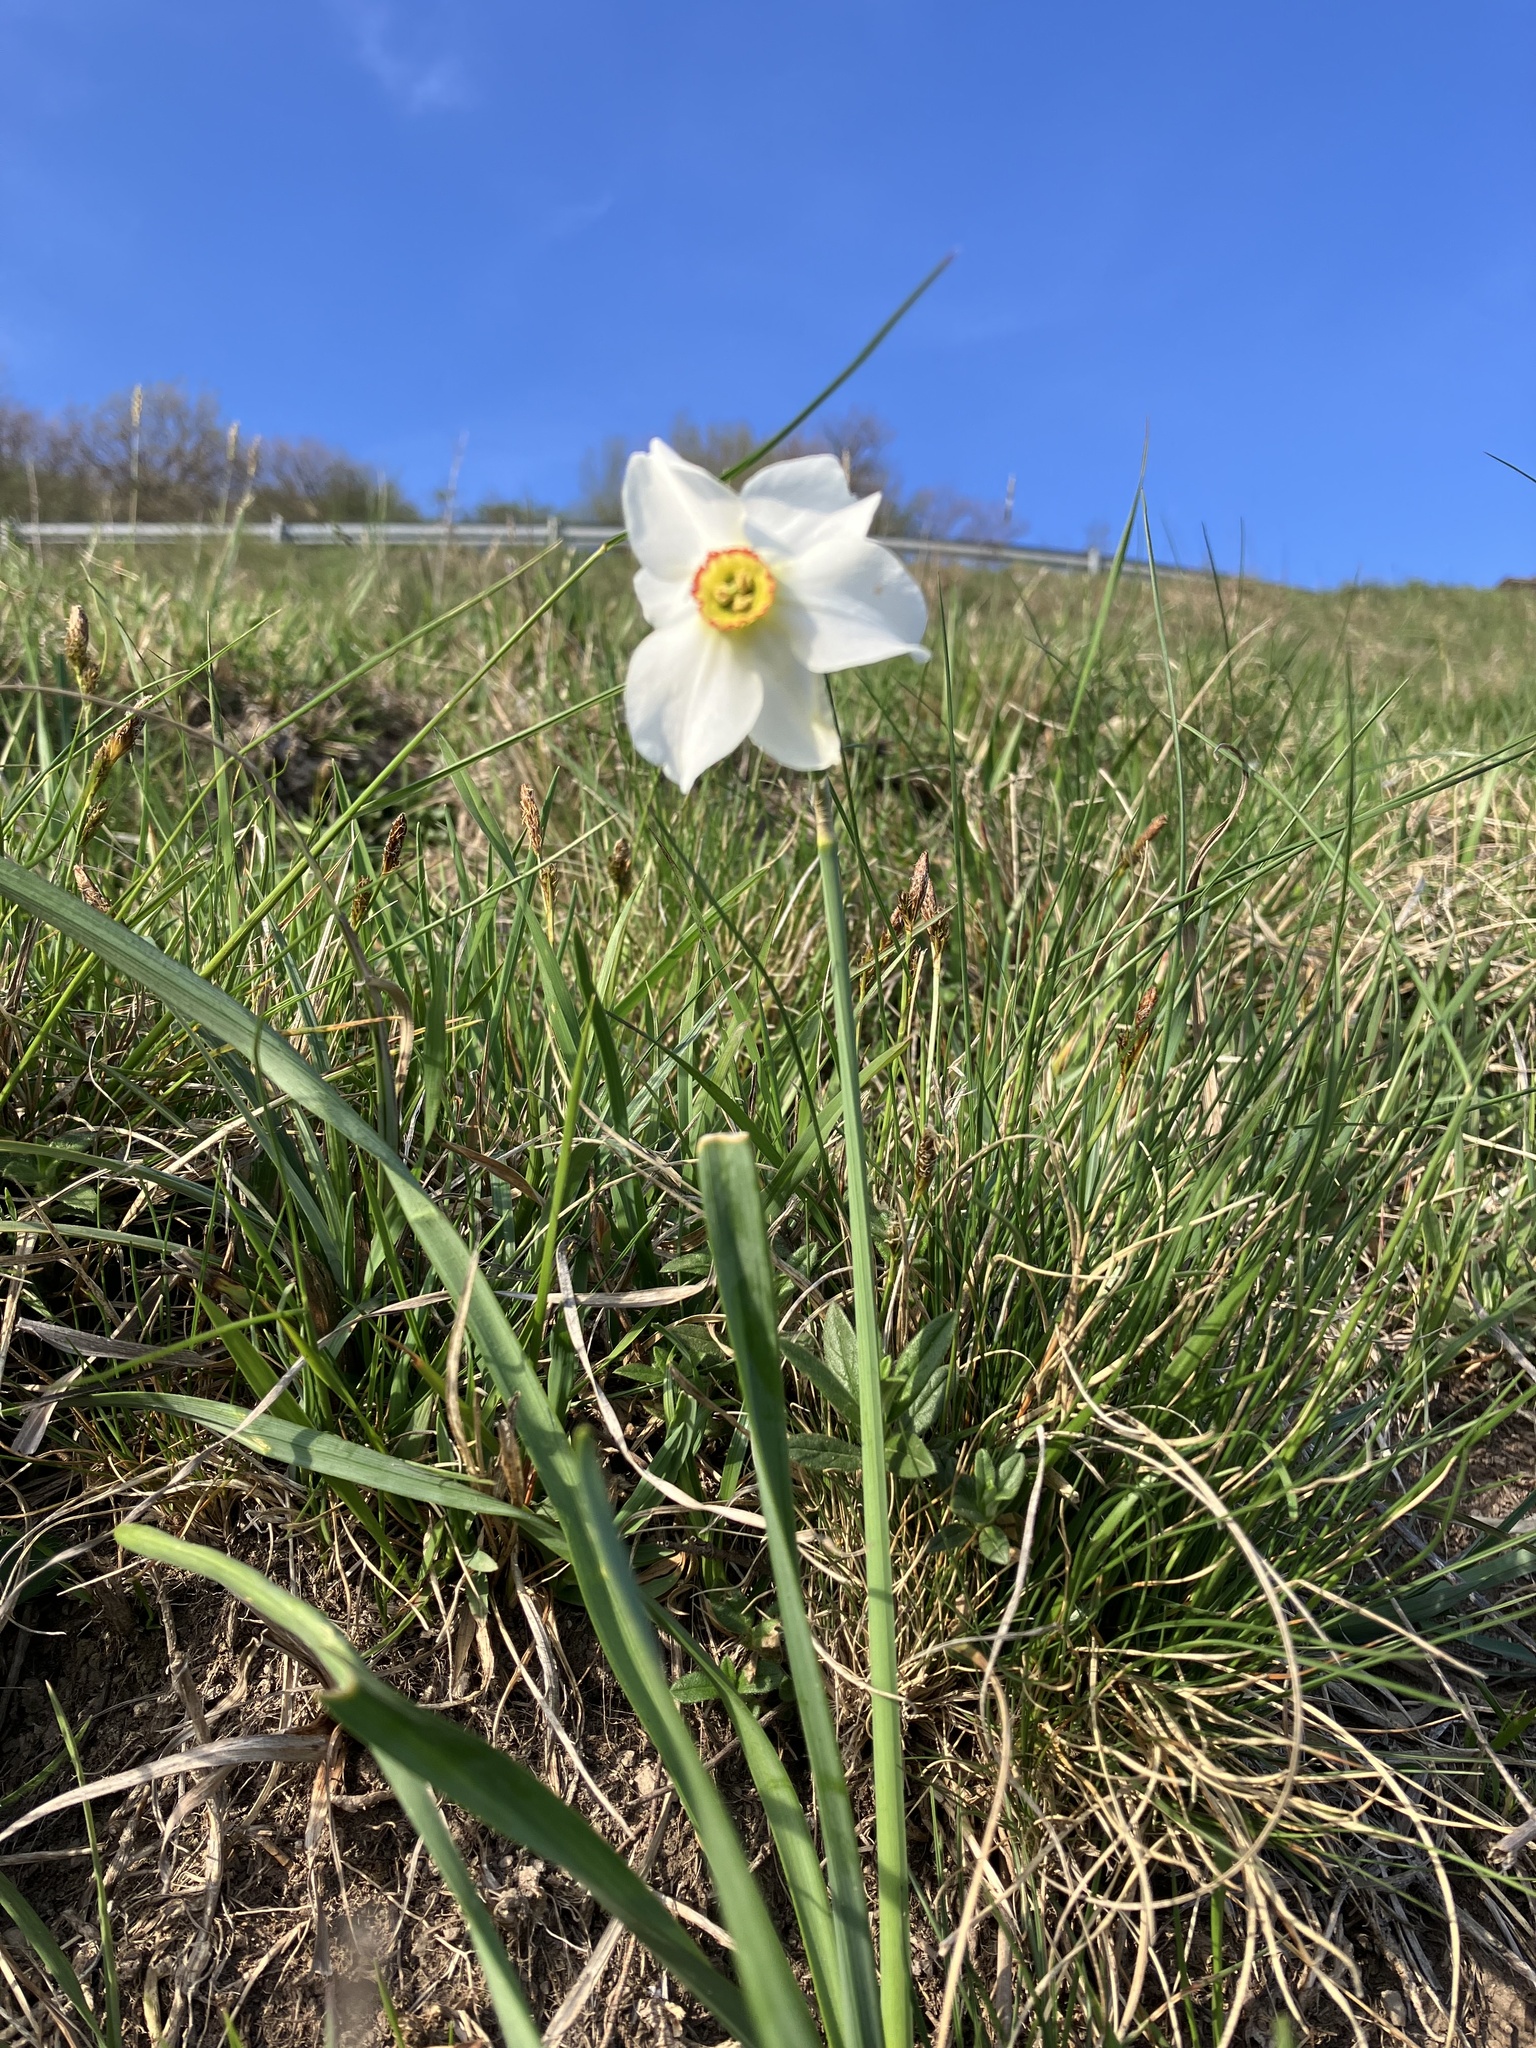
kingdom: Plantae
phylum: Tracheophyta
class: Liliopsida
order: Asparagales
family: Amaryllidaceae
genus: Narcissus
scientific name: Narcissus poeticus
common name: Pheasant's-eye daffodil
